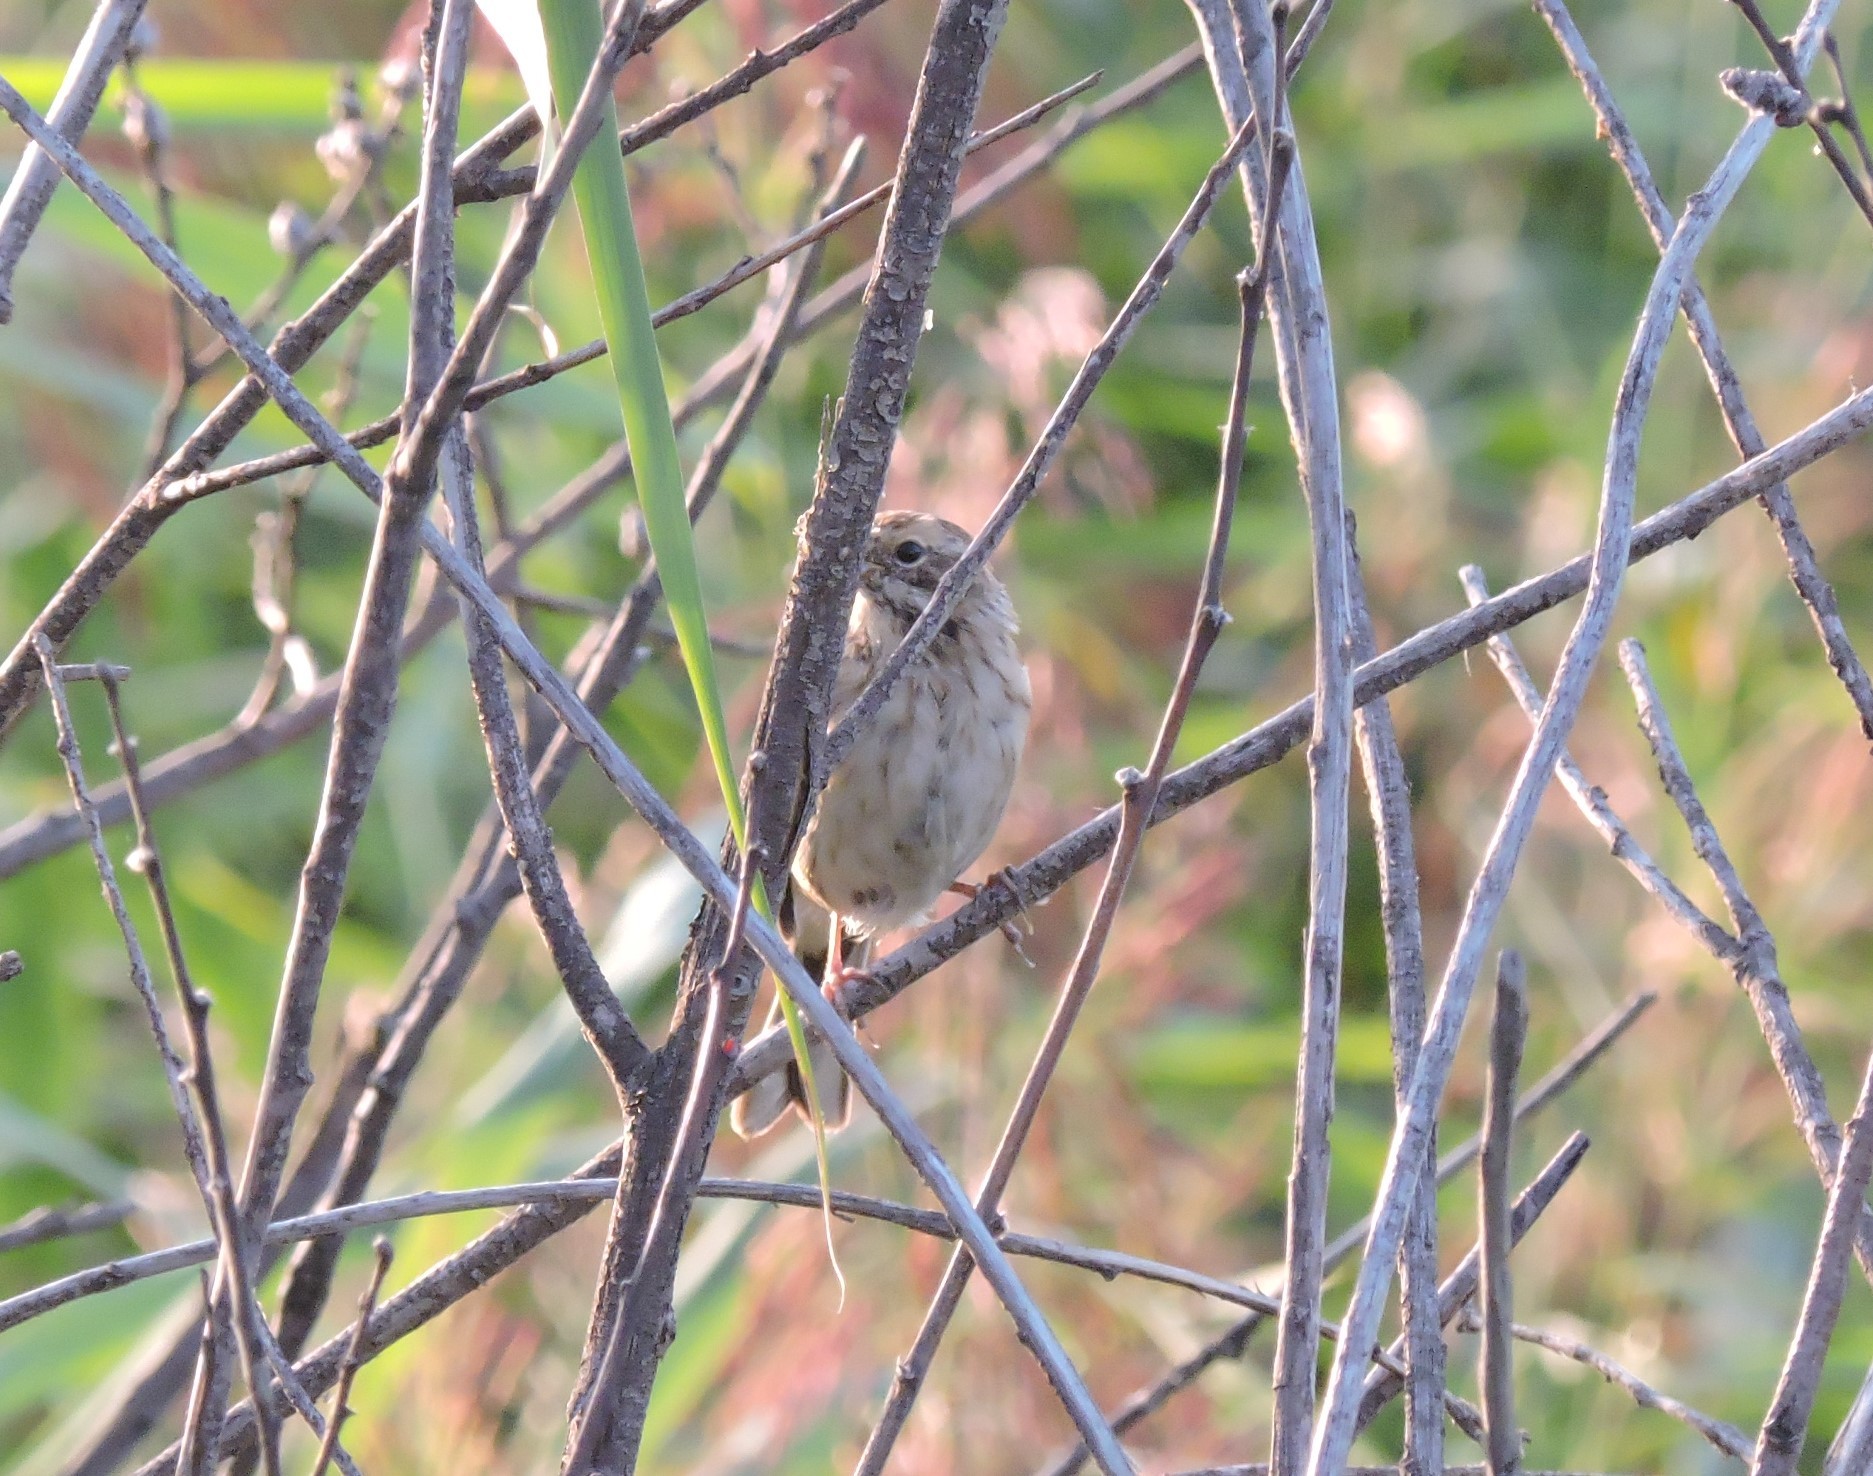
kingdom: Animalia
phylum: Chordata
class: Aves
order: Passeriformes
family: Emberizidae
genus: Emberiza
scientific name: Emberiza schoeniclus
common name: Reed bunting
